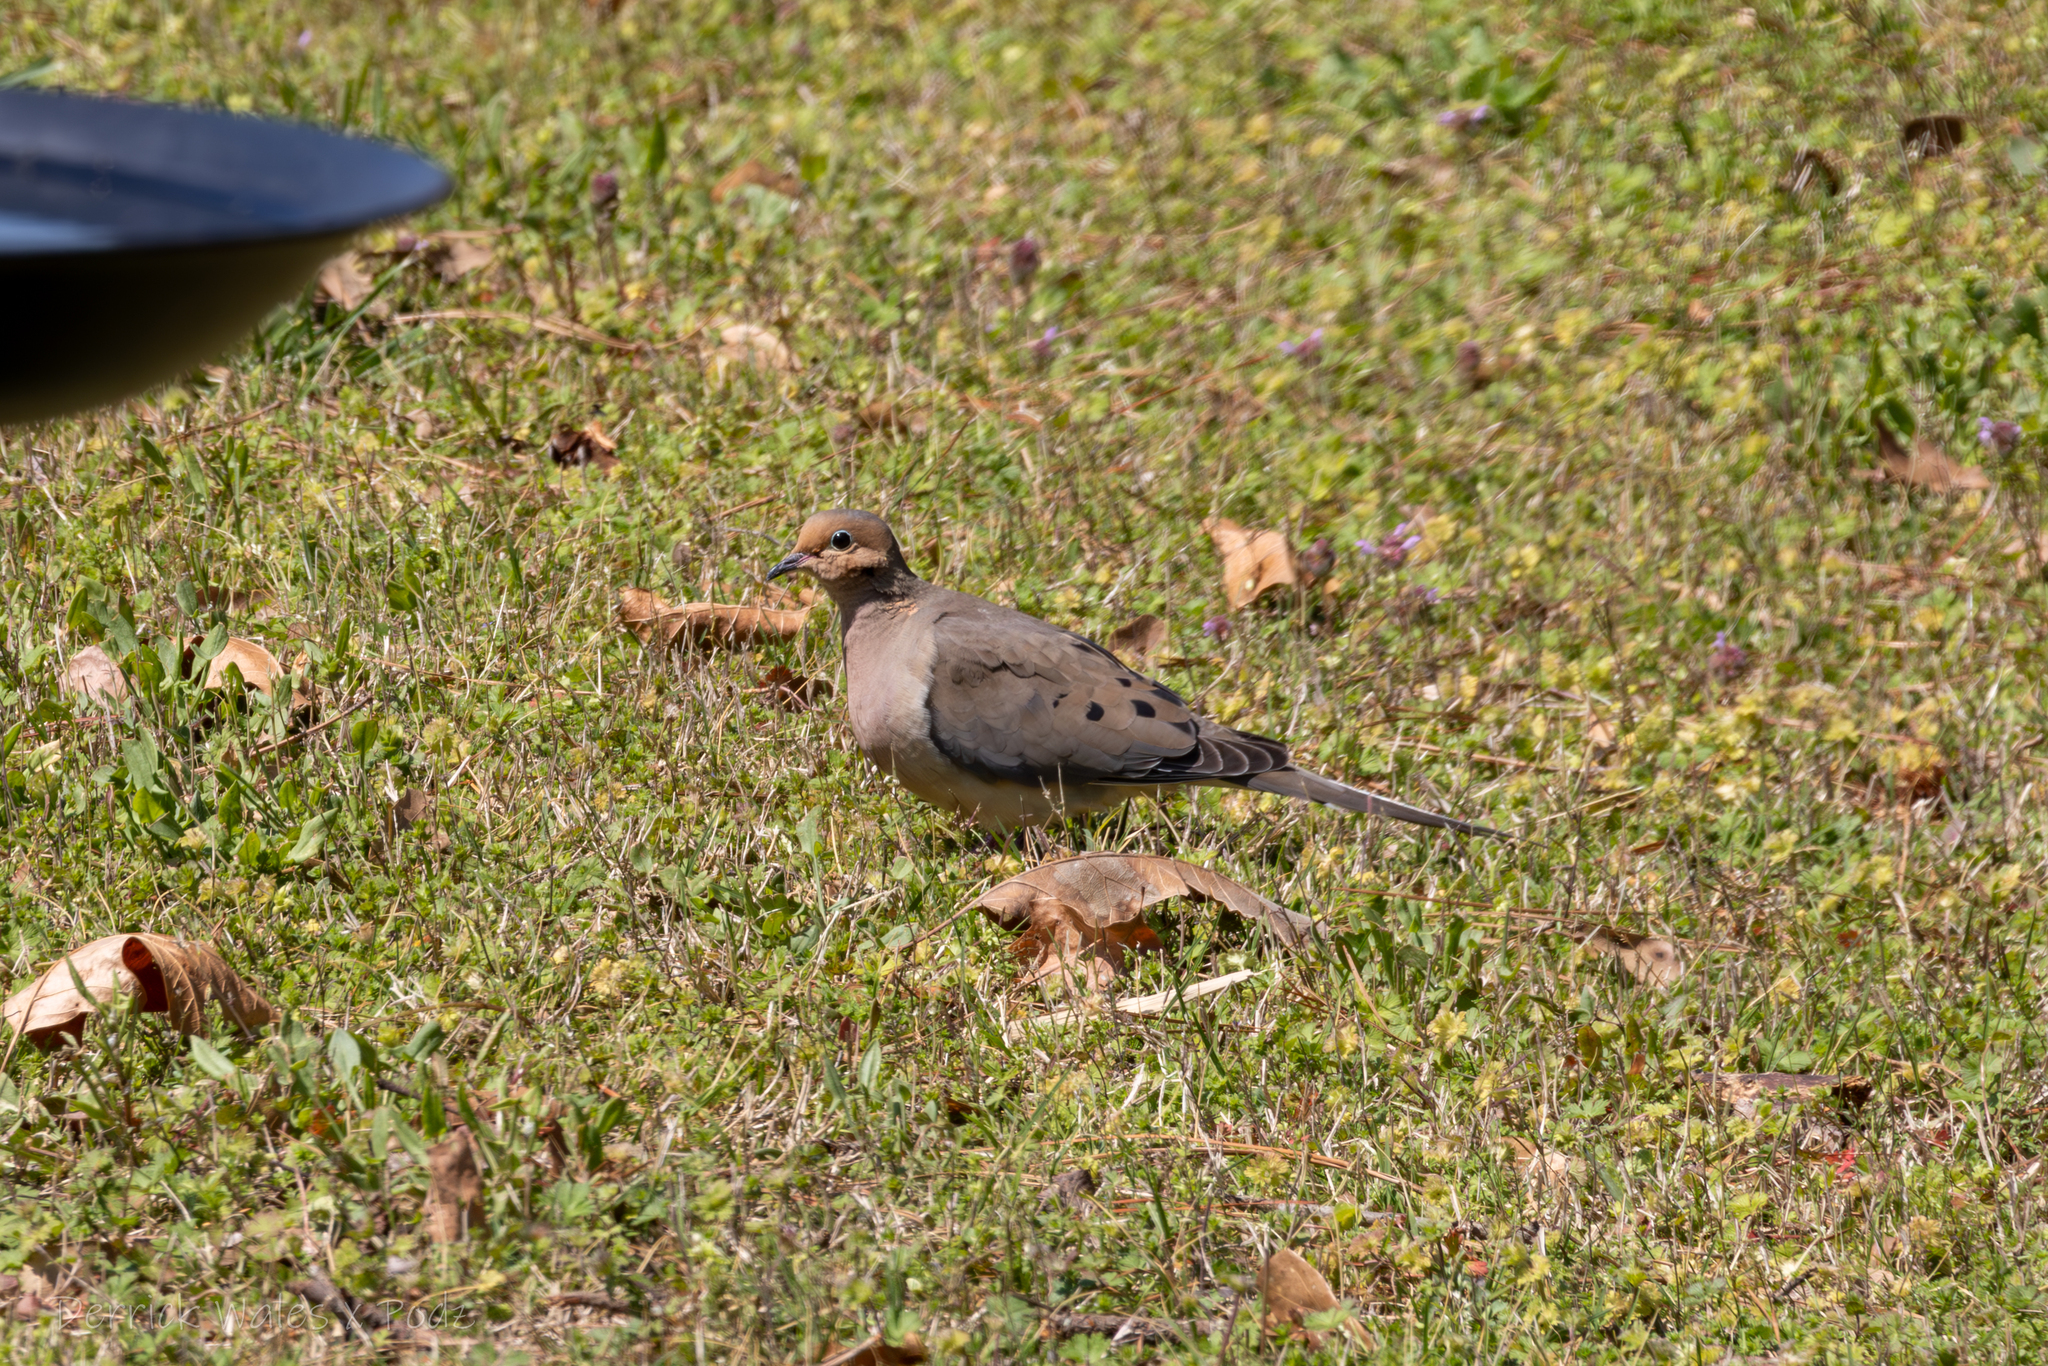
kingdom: Animalia
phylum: Chordata
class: Aves
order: Columbiformes
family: Columbidae
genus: Zenaida
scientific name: Zenaida macroura
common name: Mourning dove
